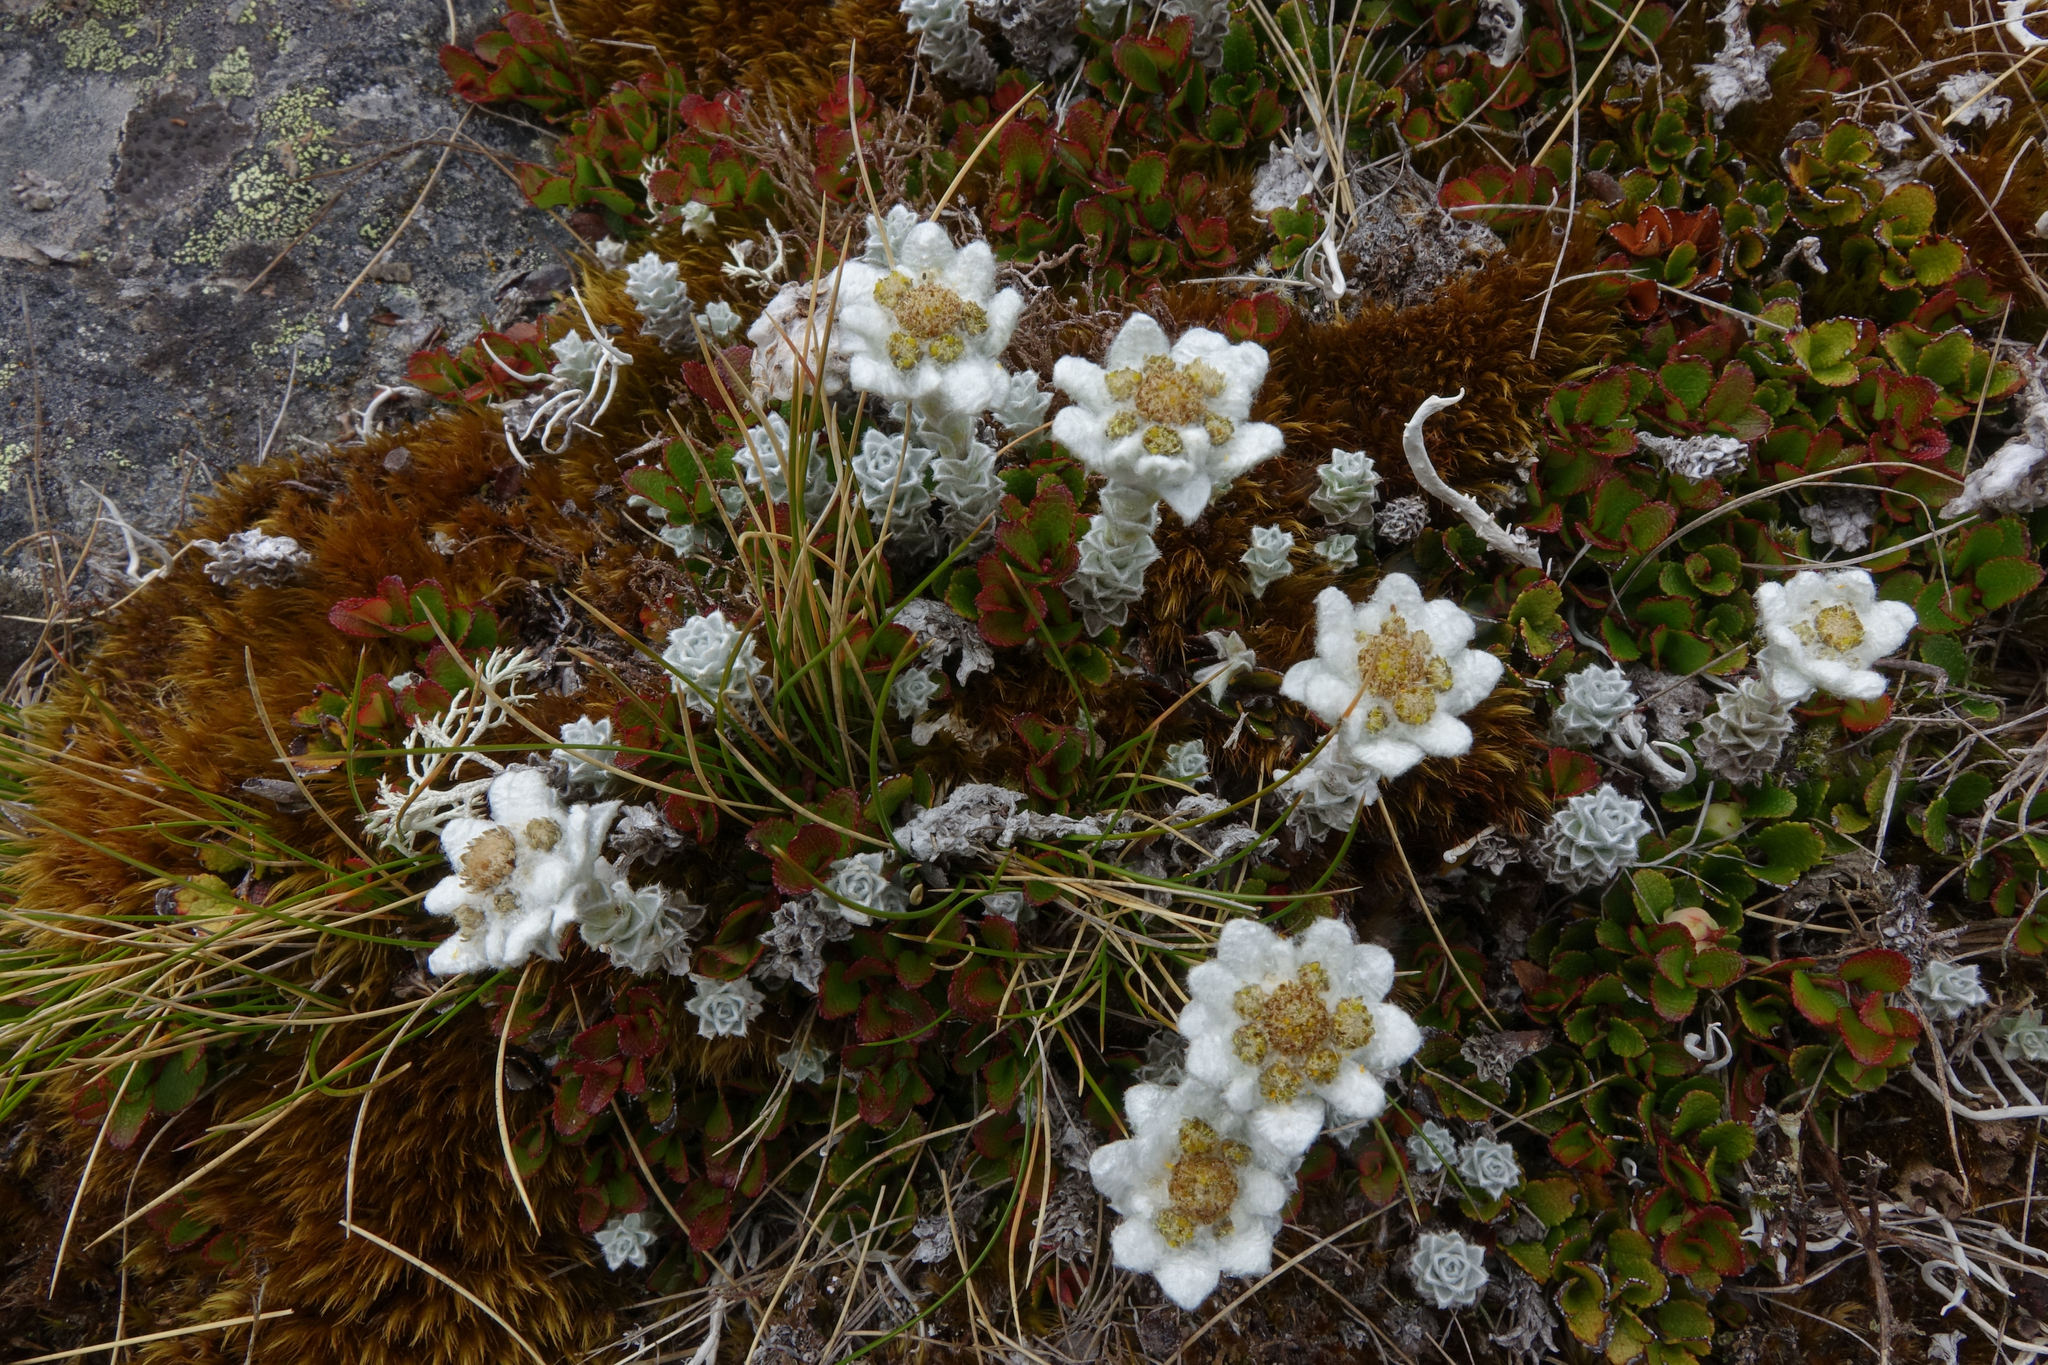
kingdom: Plantae
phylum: Tracheophyta
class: Magnoliopsida
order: Asterales
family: Asteraceae
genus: Leucogenes
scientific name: Leucogenes grandiceps
